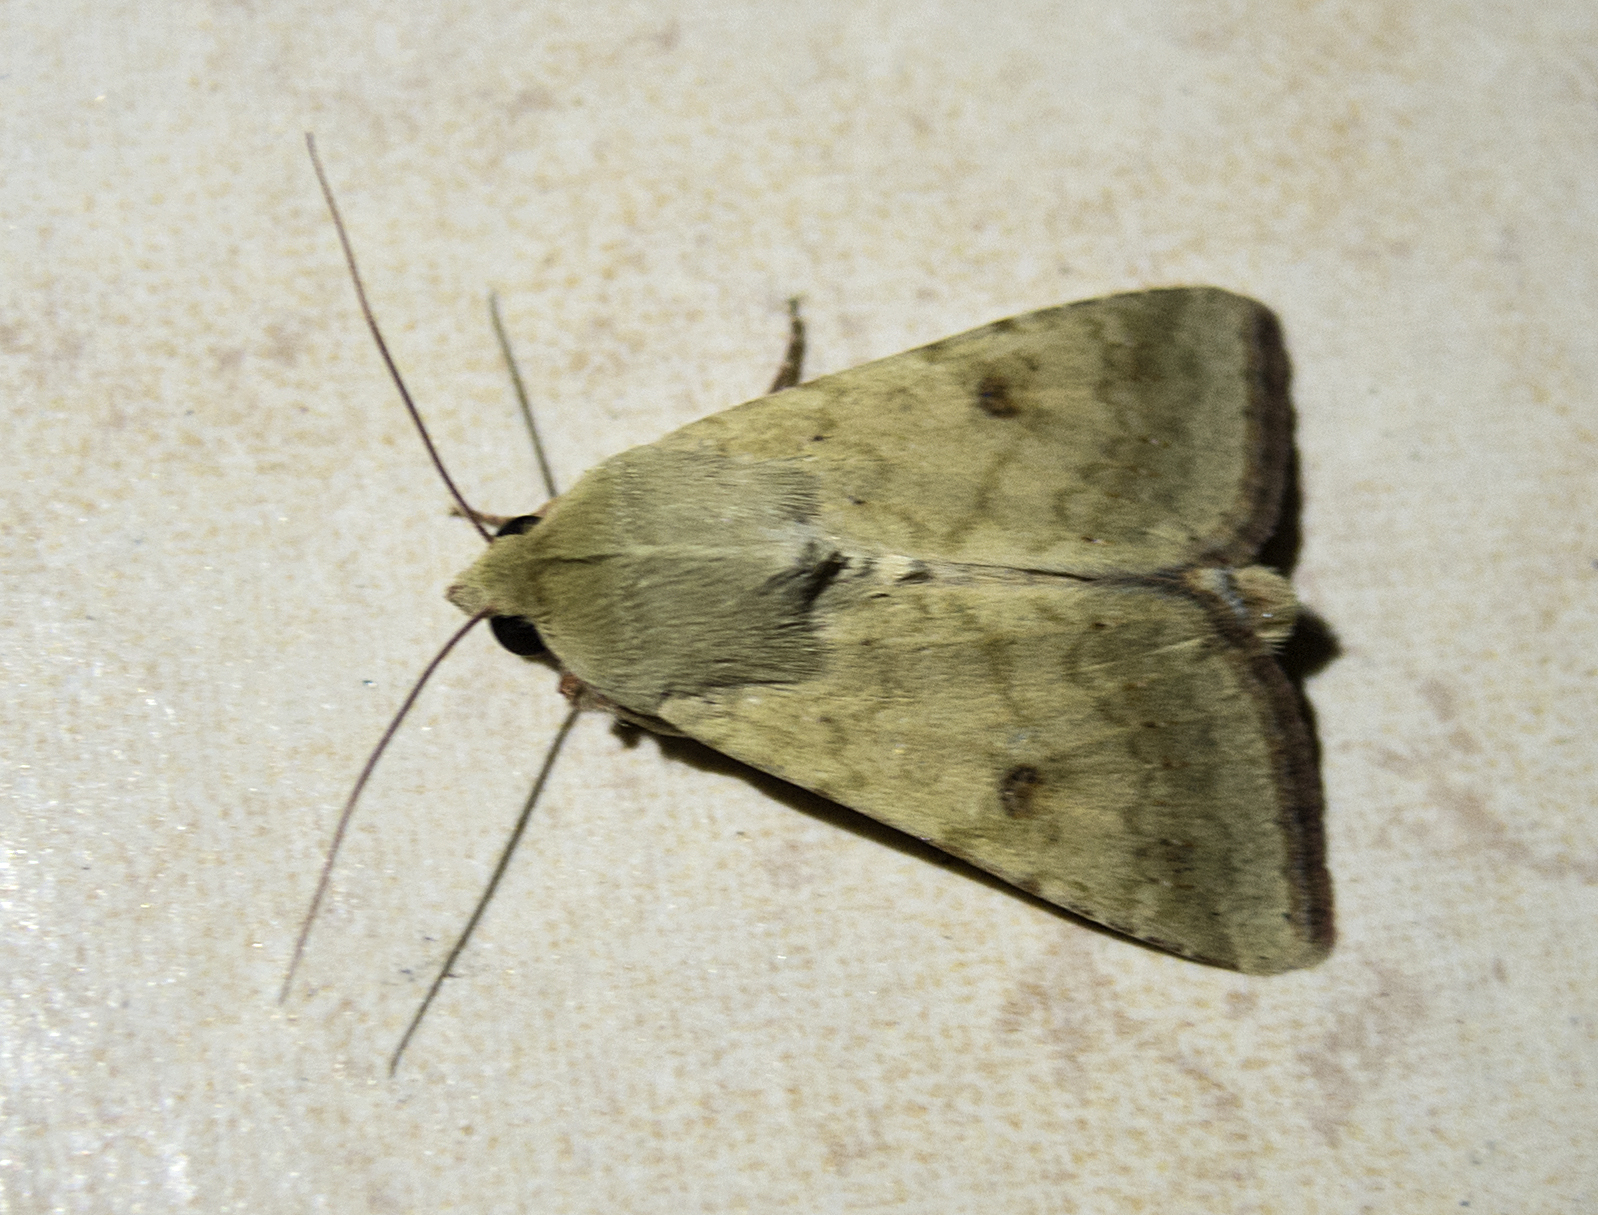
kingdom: Animalia
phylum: Arthropoda
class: Insecta
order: Lepidoptera
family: Noctuidae
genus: Helicoverpa
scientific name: Helicoverpa armigera
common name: Cotton bollworm
